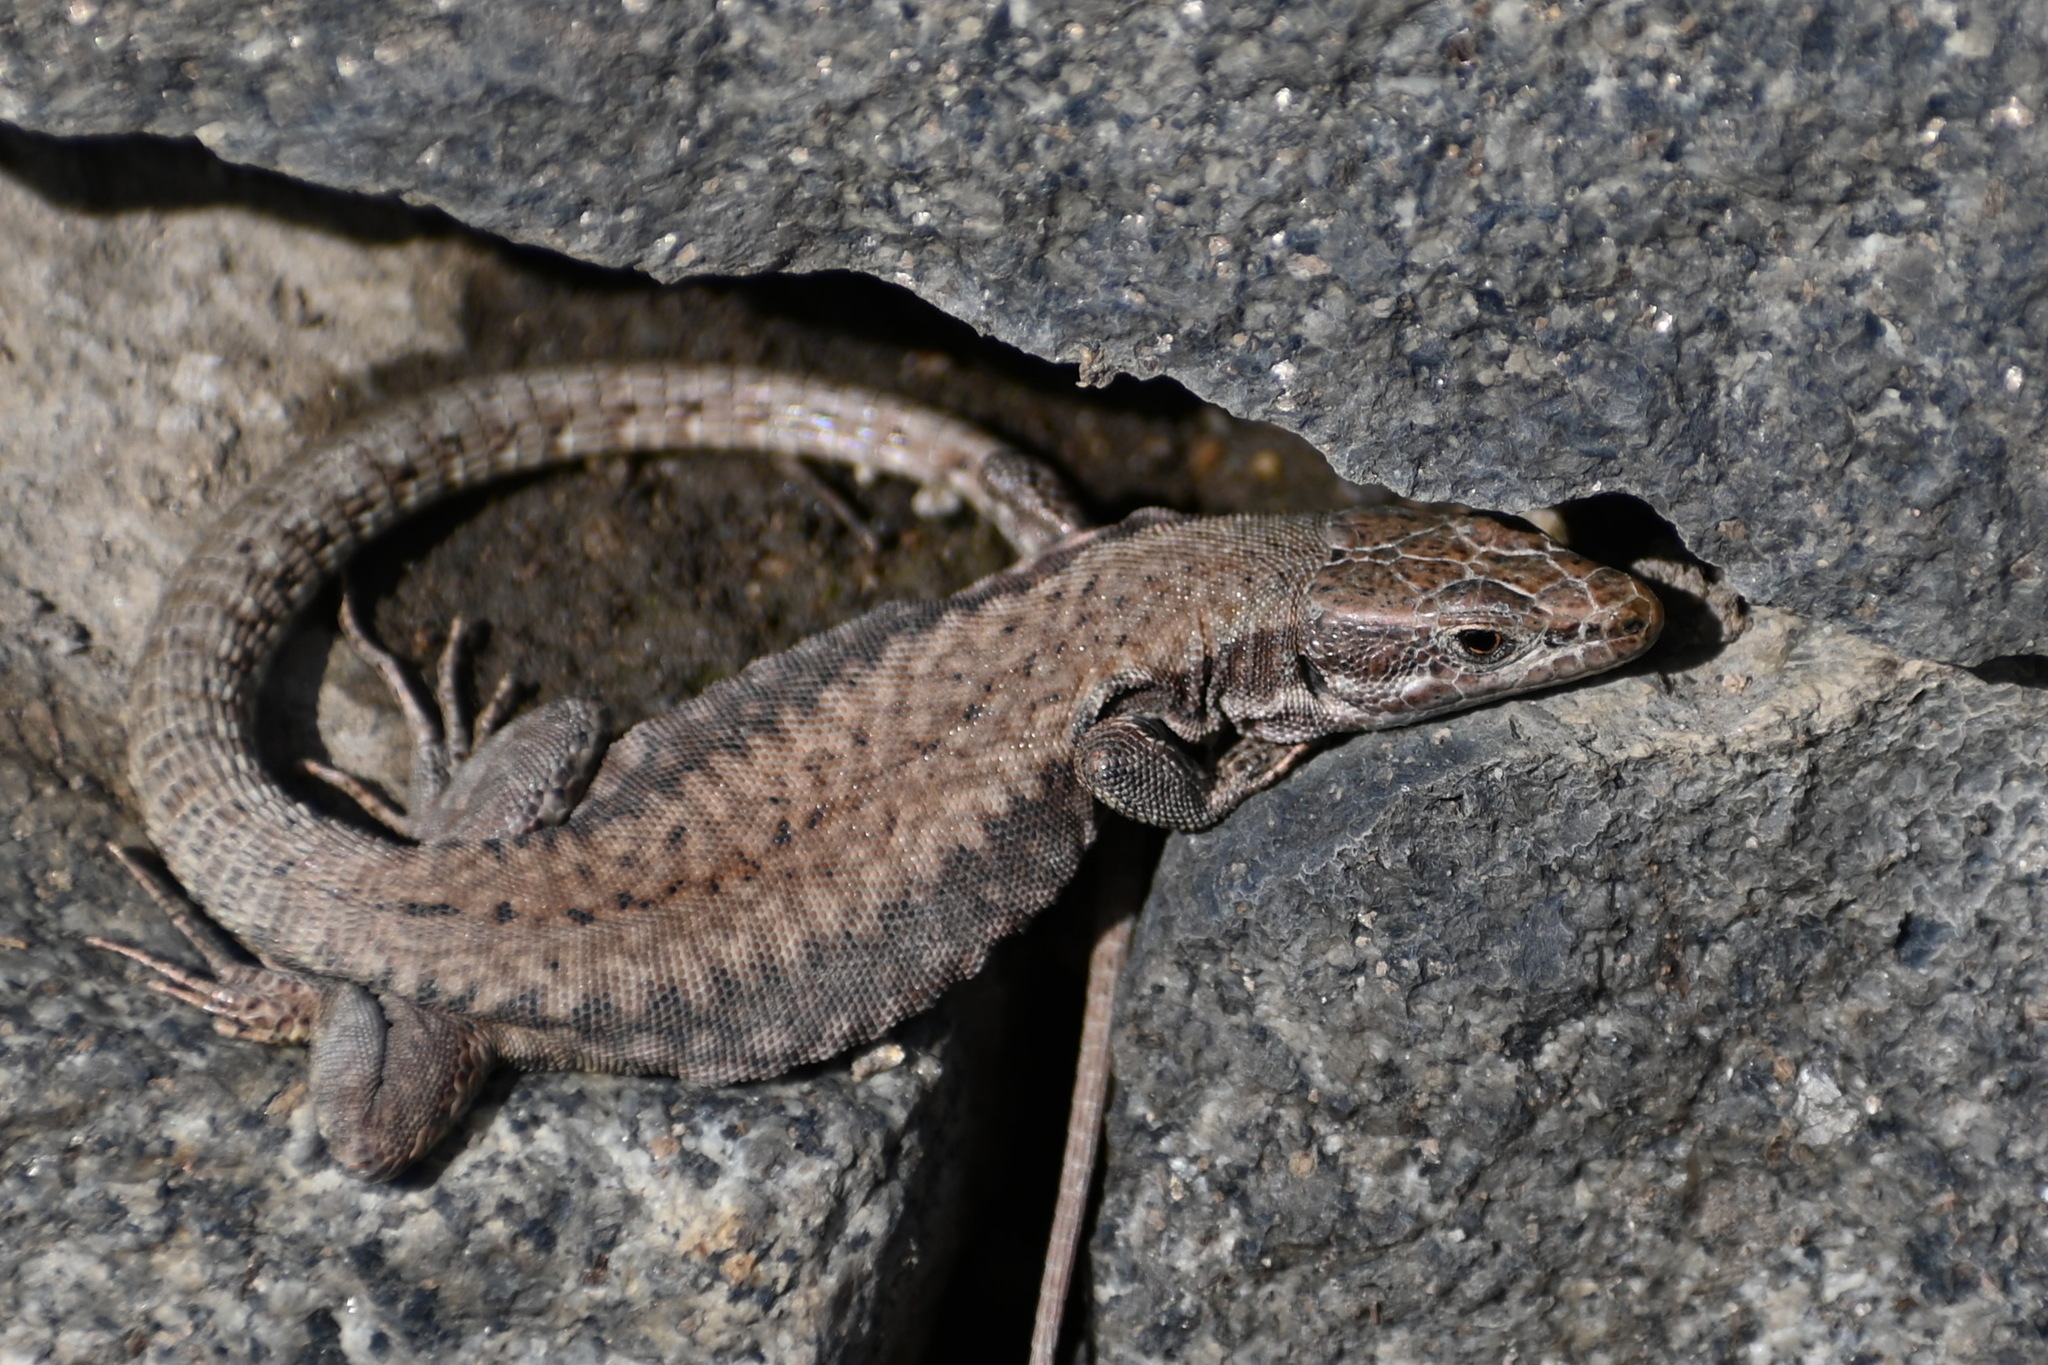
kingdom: Animalia
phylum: Chordata
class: Squamata
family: Lacertidae
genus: Podarcis
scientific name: Podarcis muralis
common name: Common wall lizard
